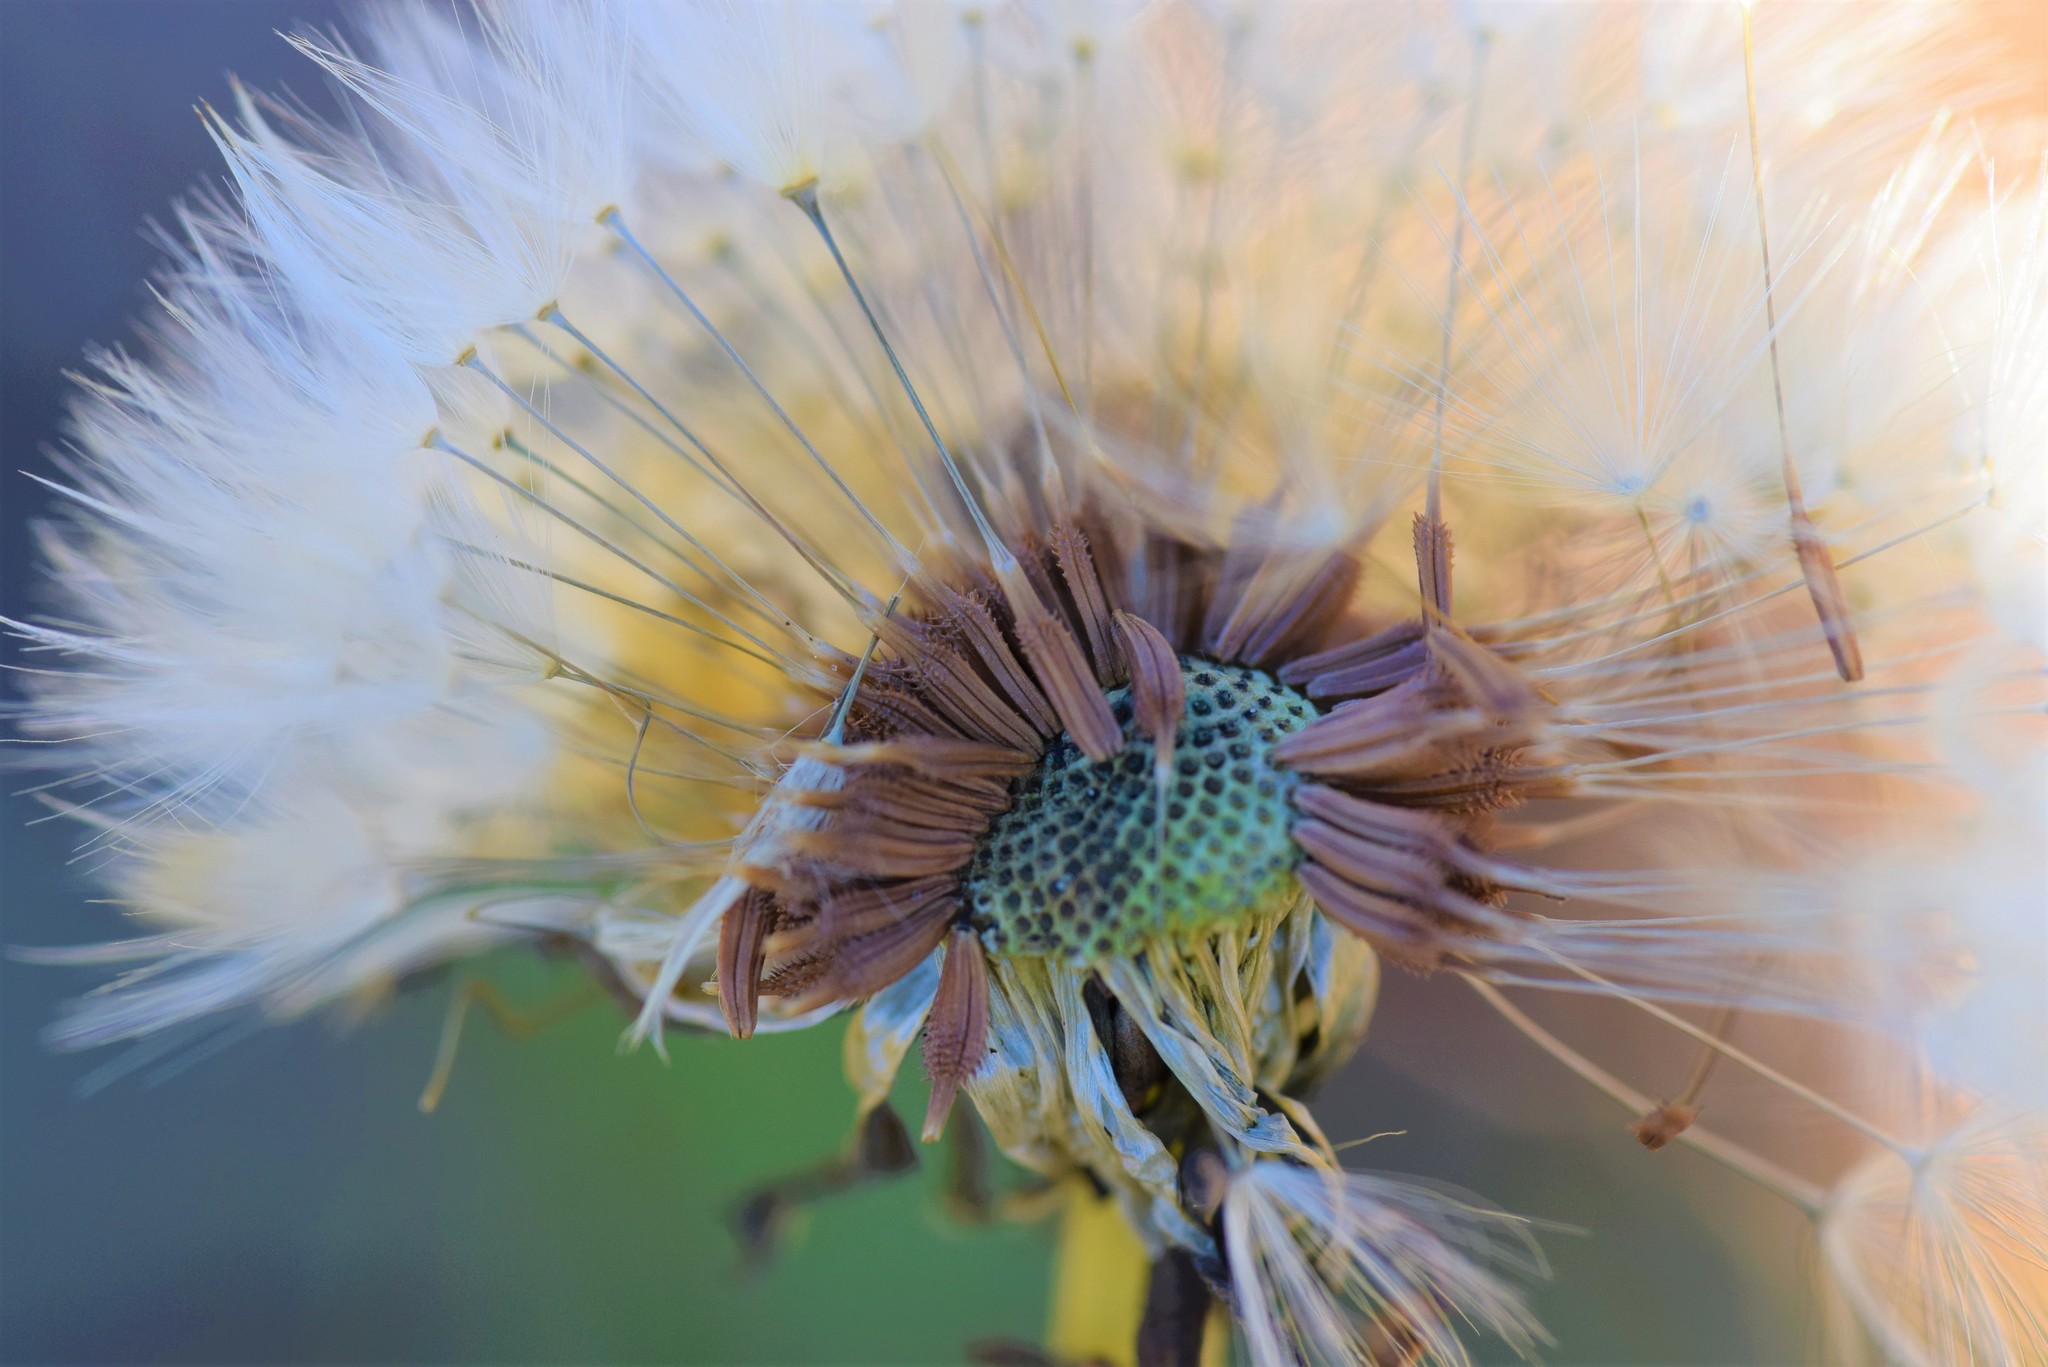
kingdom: Plantae
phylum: Tracheophyta
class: Magnoliopsida
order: Asterales
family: Asteraceae
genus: Taraxacum
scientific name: Taraxacum officinale
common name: Common dandelion
